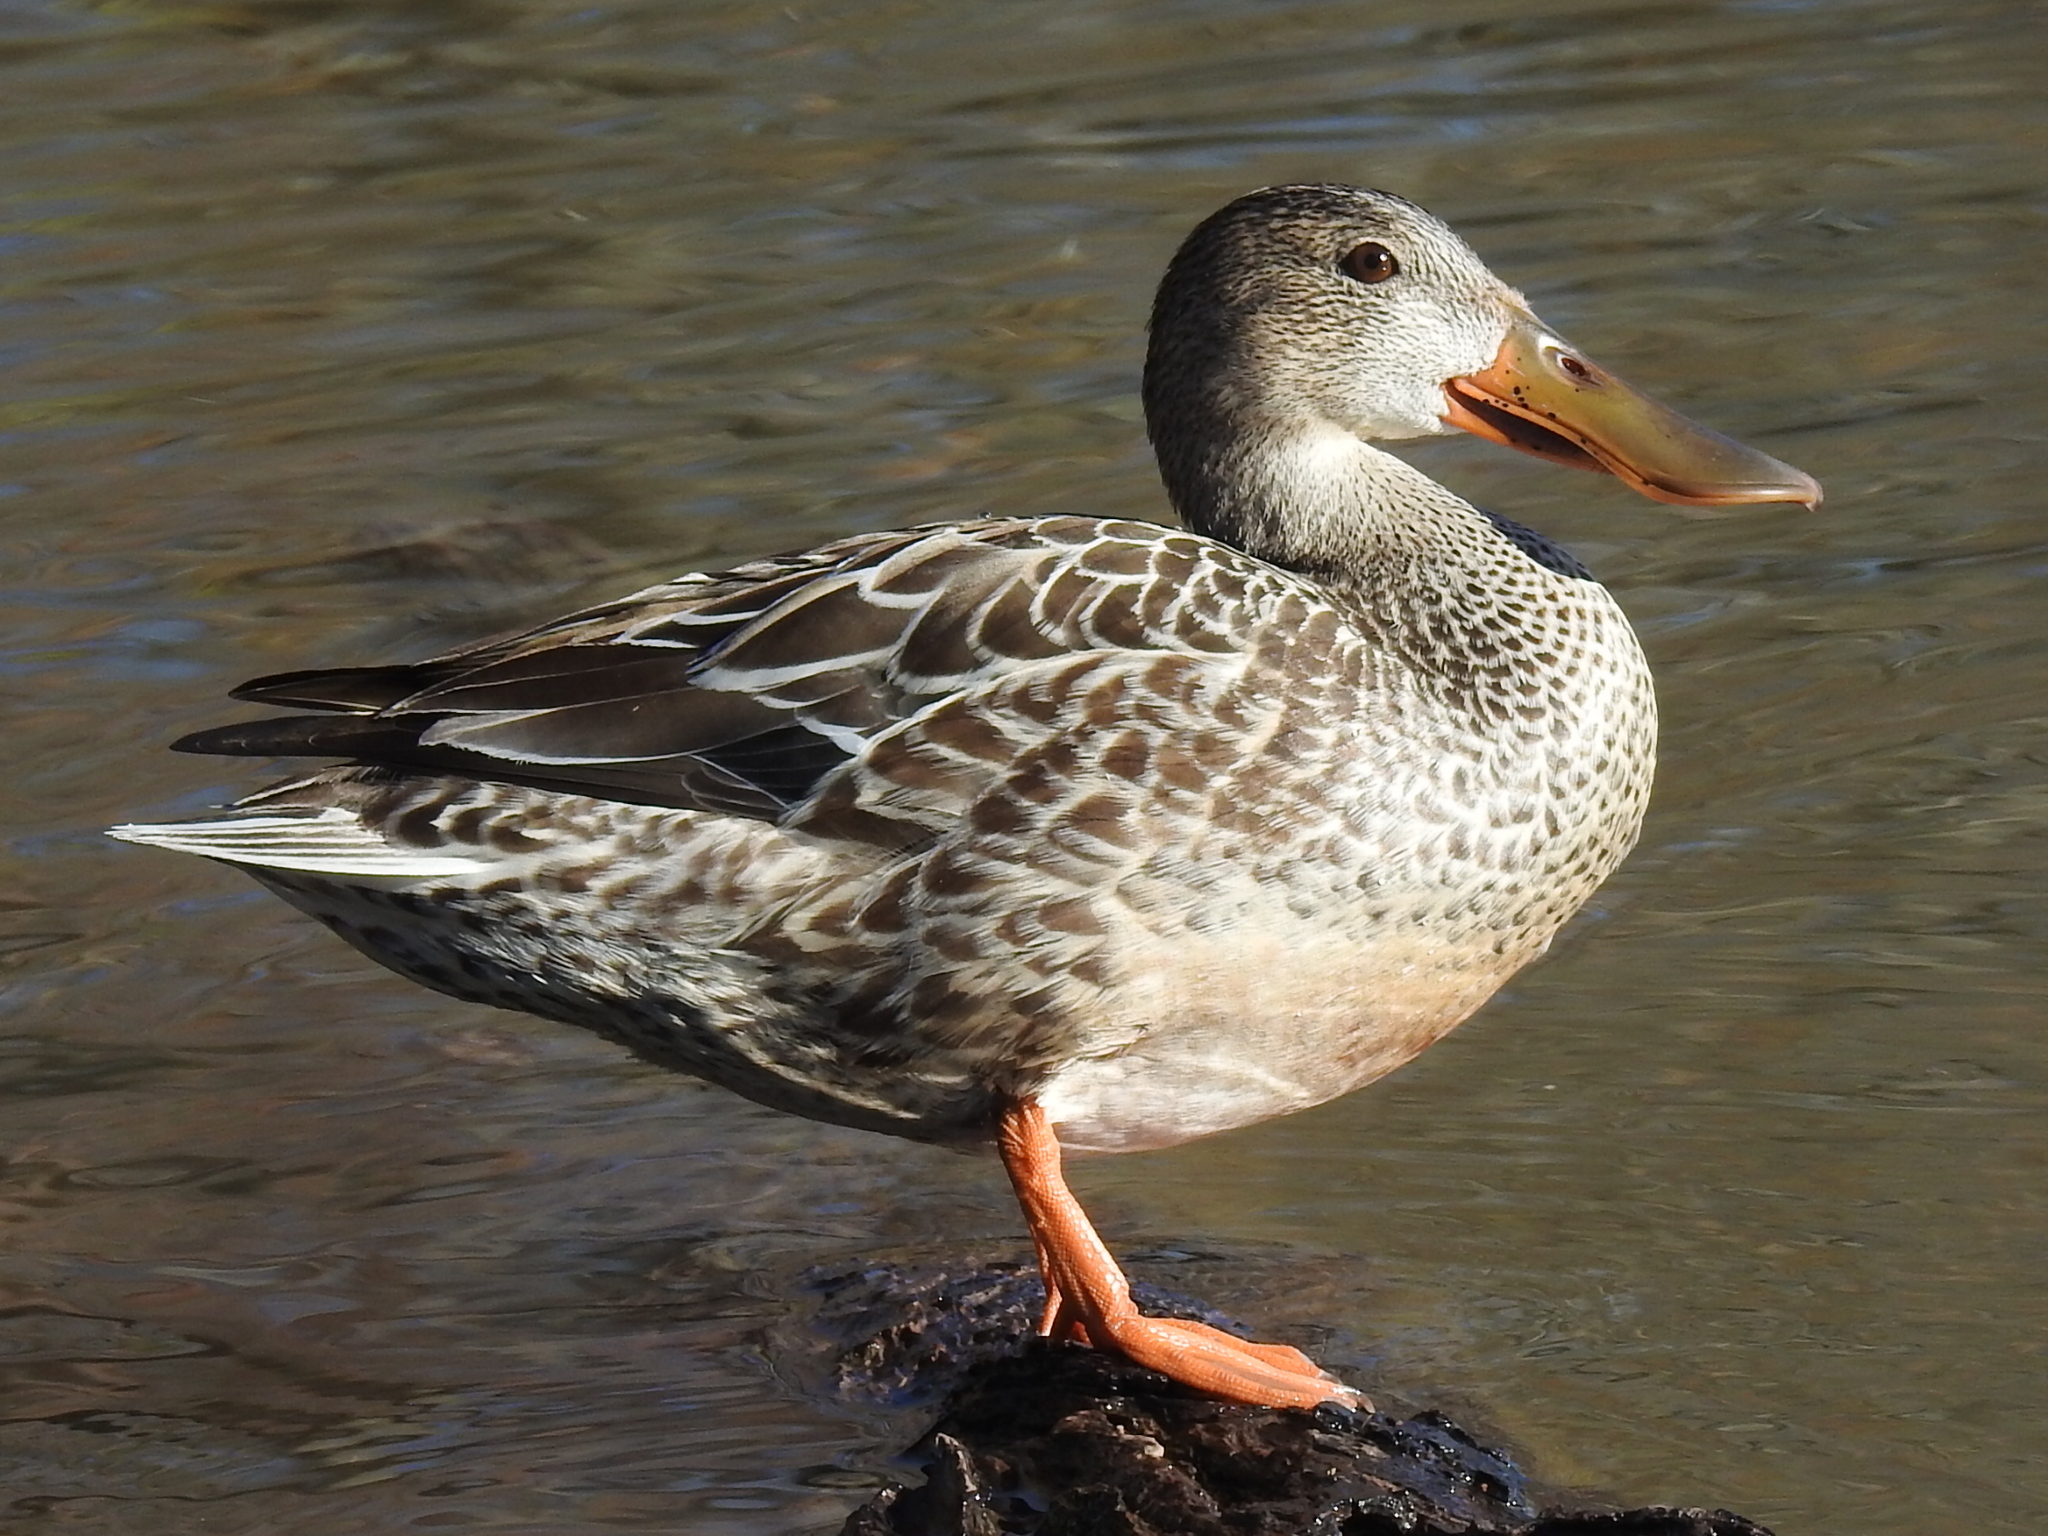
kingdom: Animalia
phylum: Chordata
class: Aves
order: Anseriformes
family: Anatidae
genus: Spatula
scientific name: Spatula clypeata
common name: Northern shoveler
